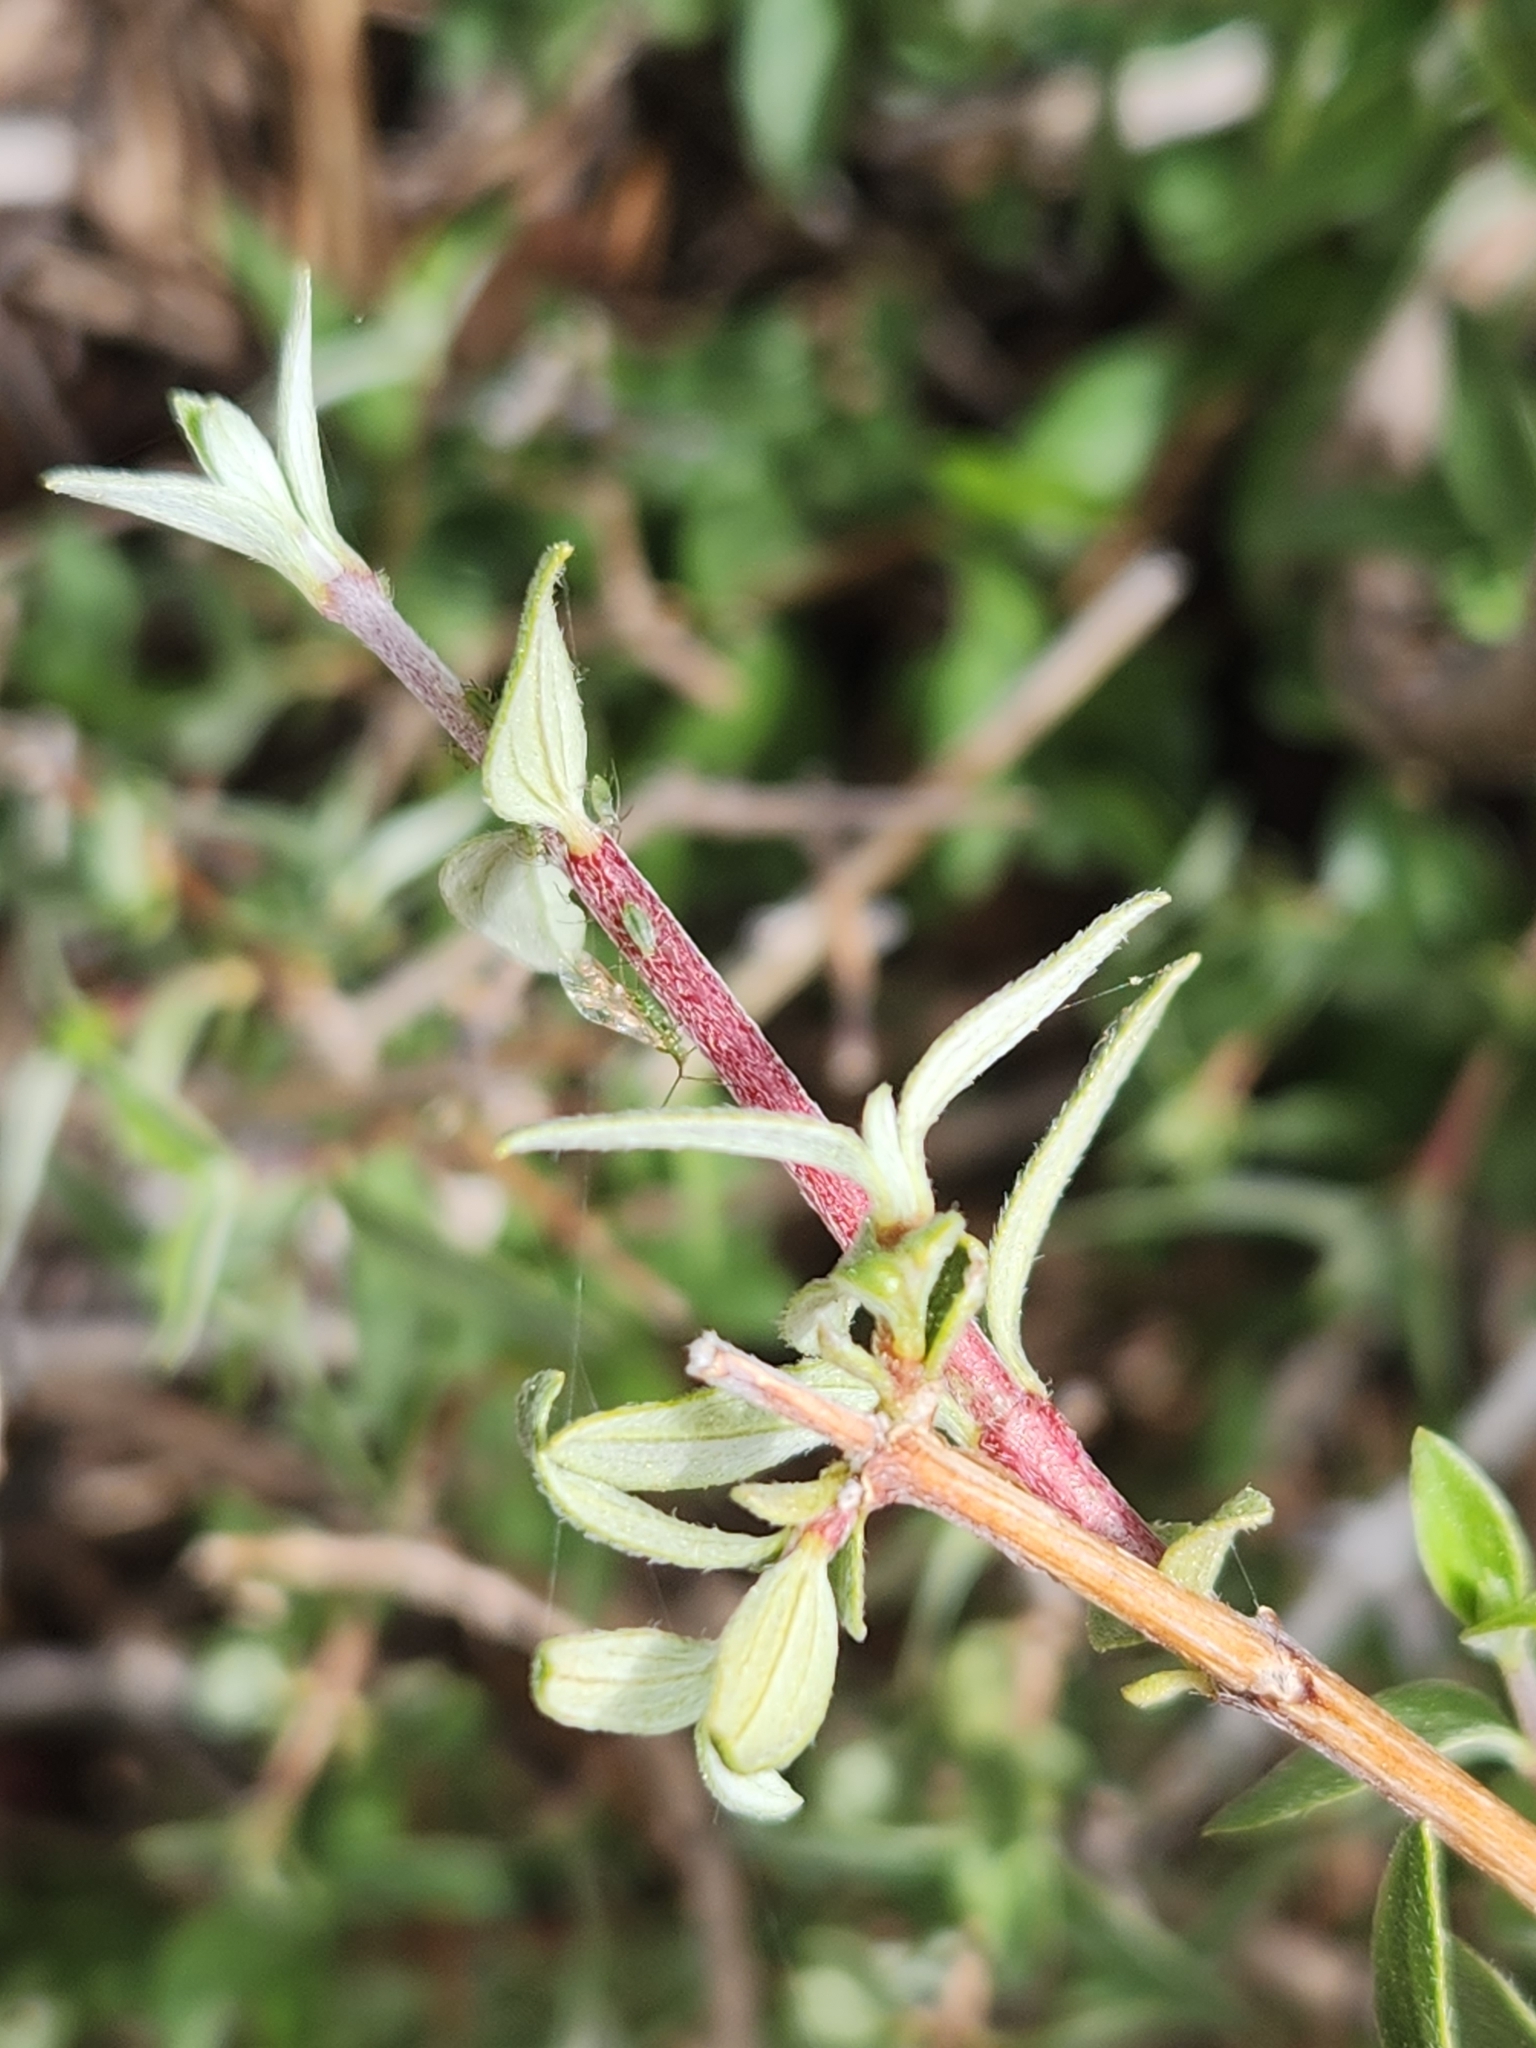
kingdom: Plantae
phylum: Tracheophyta
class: Magnoliopsida
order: Cornales
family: Hydrangeaceae
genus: Philadelphus
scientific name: Philadelphus microphyllus
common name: Desert mock orange
